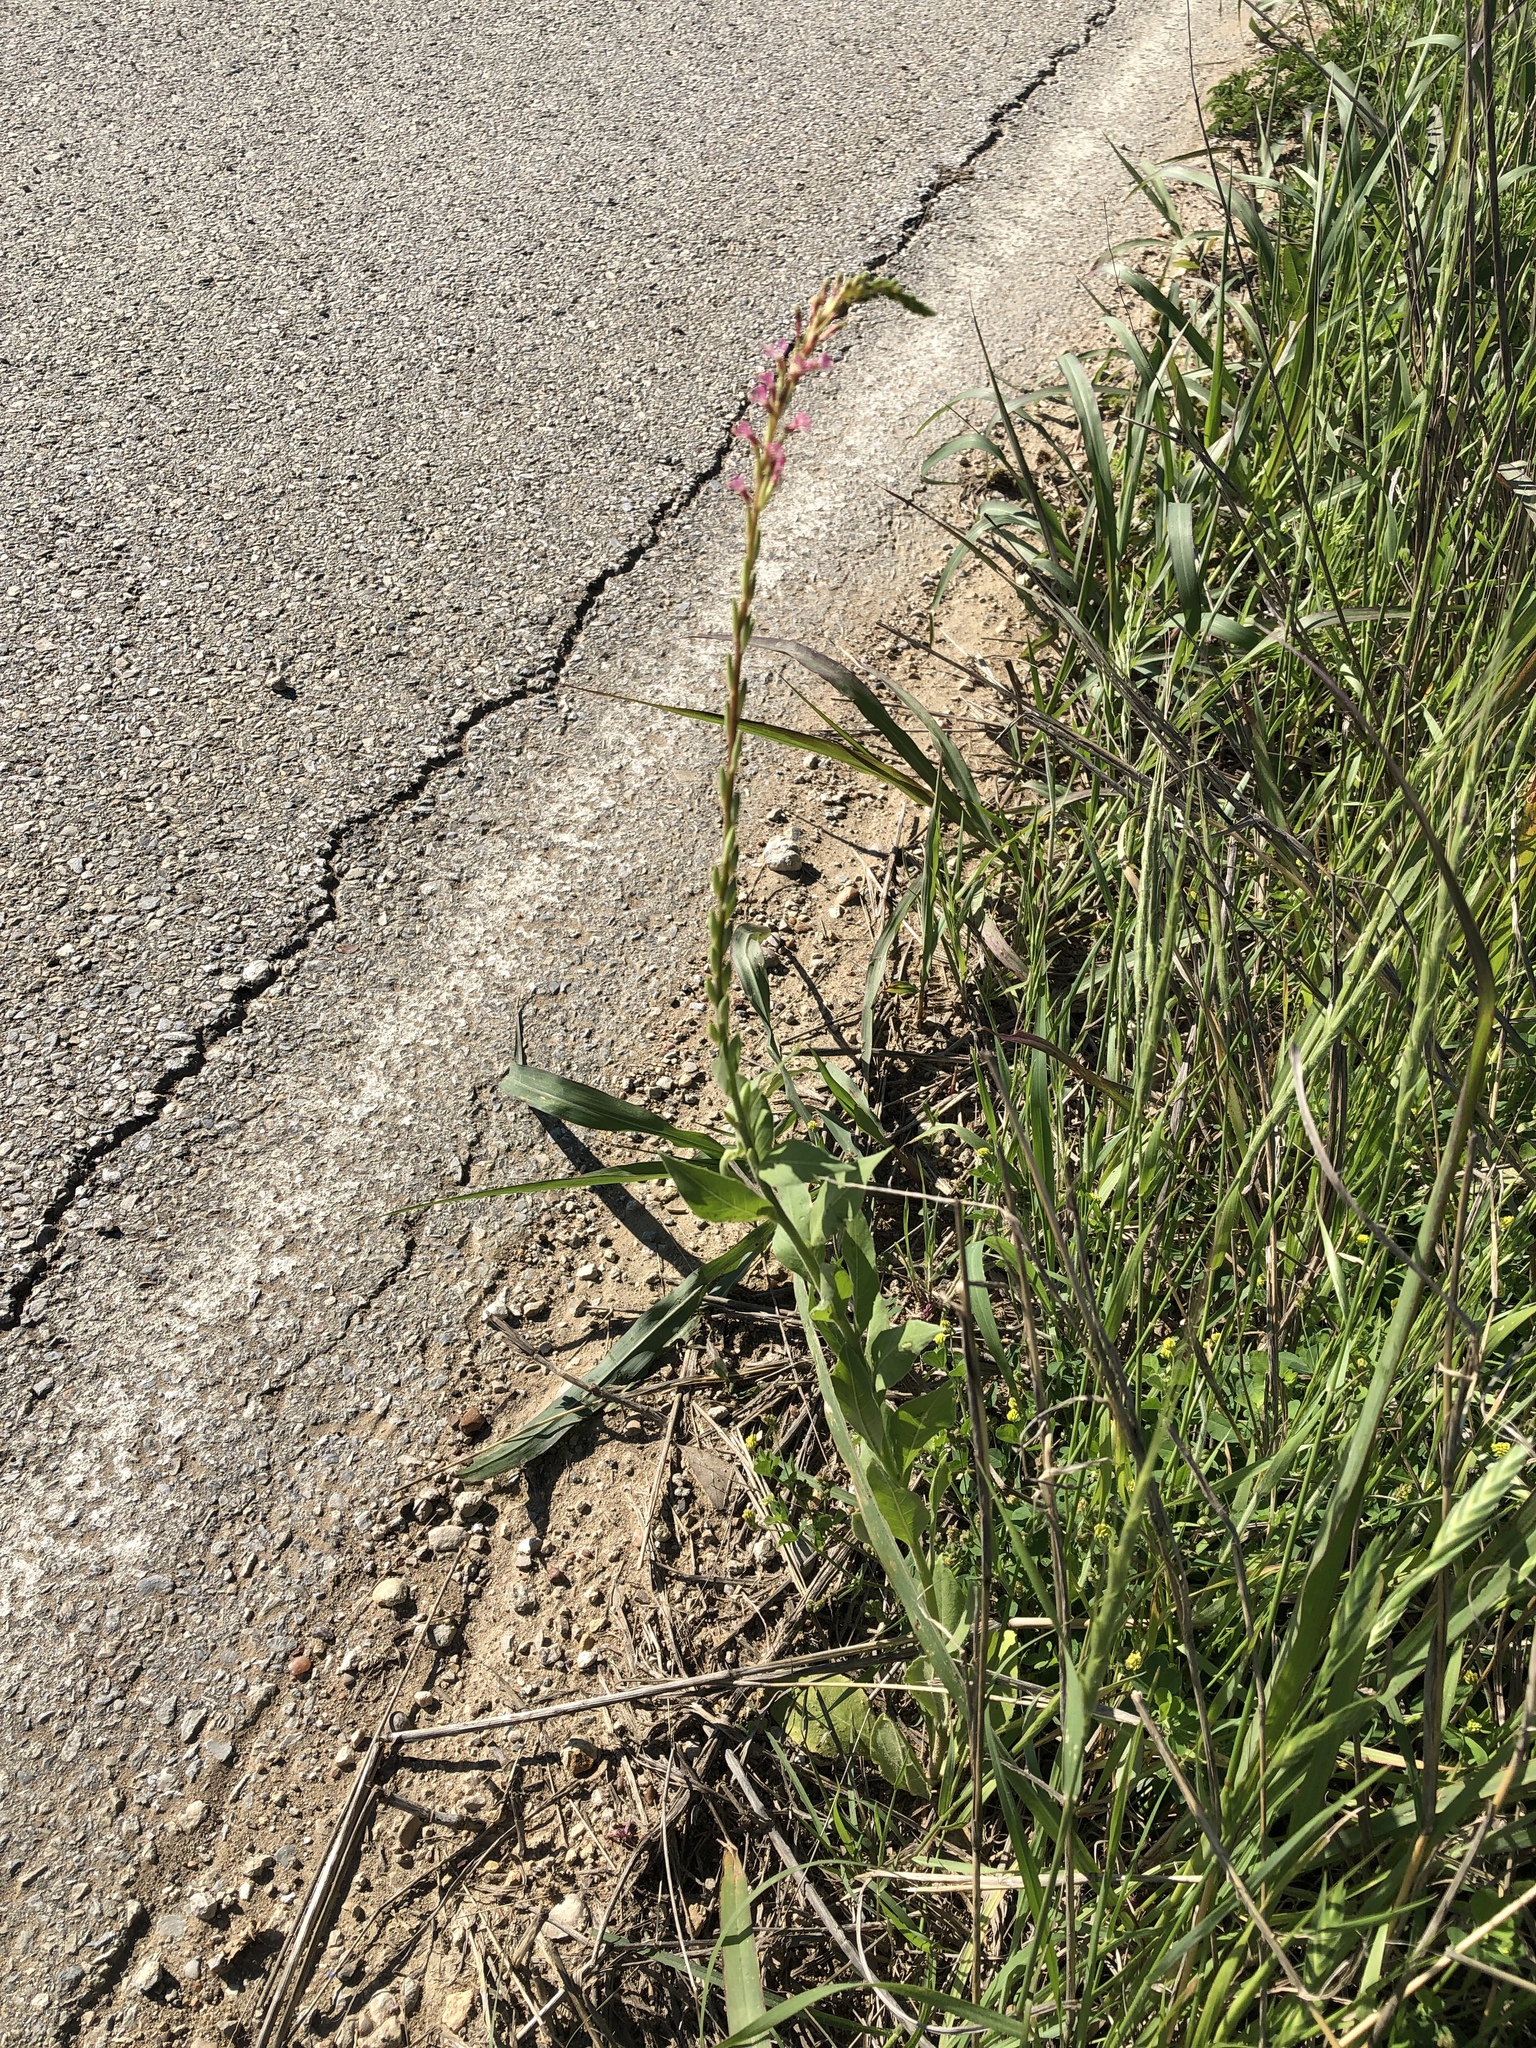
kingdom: Plantae
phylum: Tracheophyta
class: Magnoliopsida
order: Myrtales
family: Onagraceae
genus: Oenothera
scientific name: Oenothera curtiflora
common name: Velvetweed
